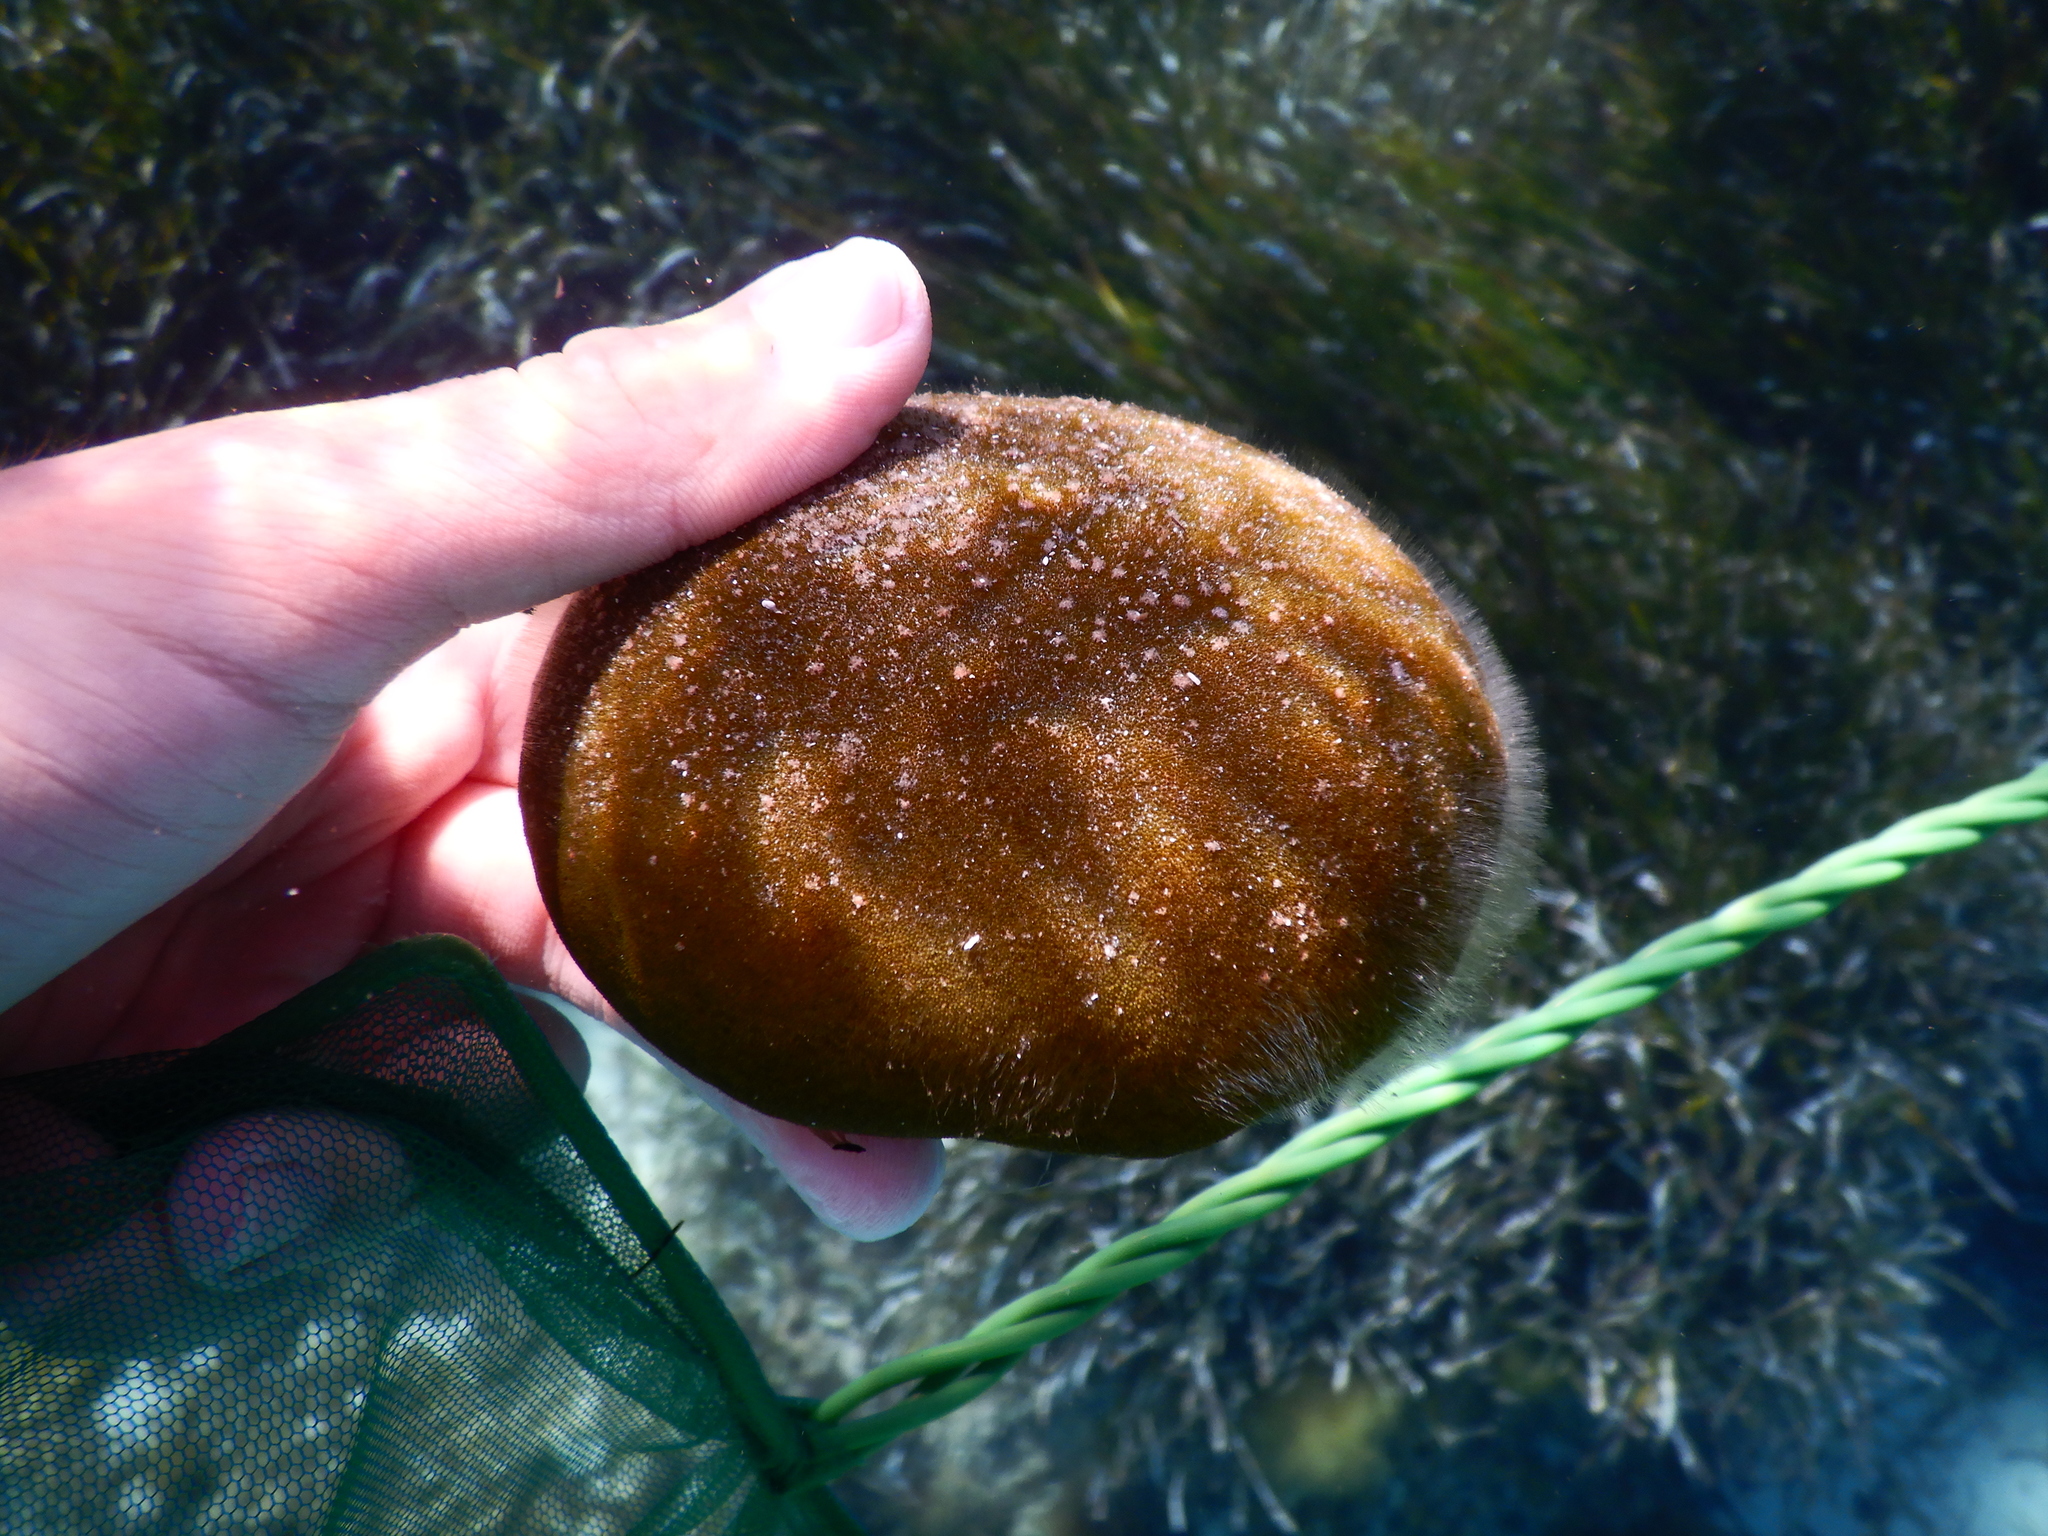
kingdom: Plantae
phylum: Chlorophyta
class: Ulvophyceae
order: Bryopsidales
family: Codiaceae
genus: Codium
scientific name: Codium bursa
